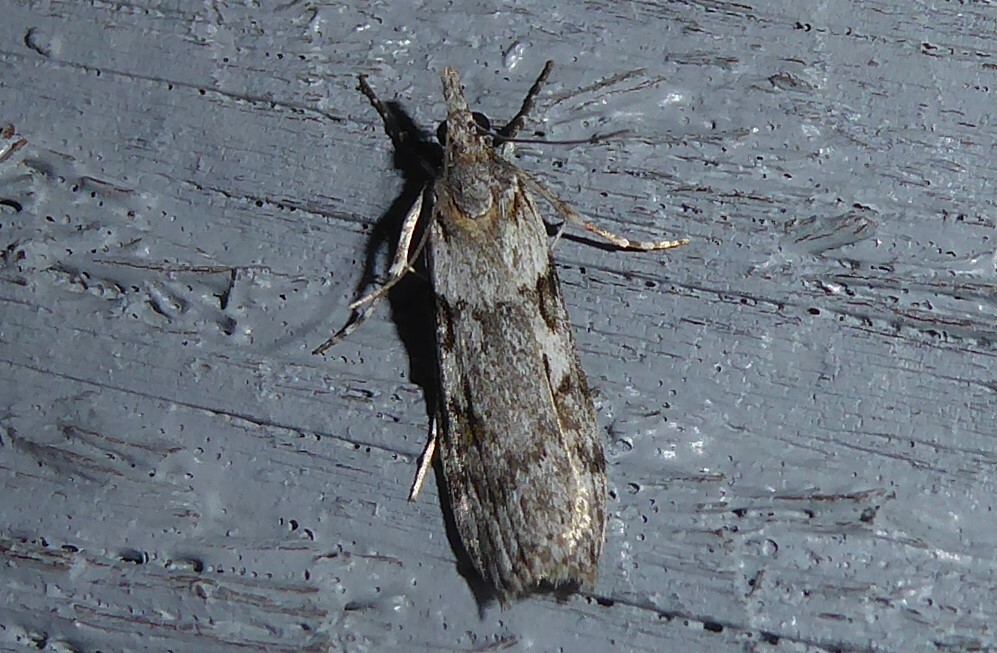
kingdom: Animalia
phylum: Arthropoda
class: Insecta
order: Lepidoptera
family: Crambidae
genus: Scoparia
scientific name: Scoparia halopis
